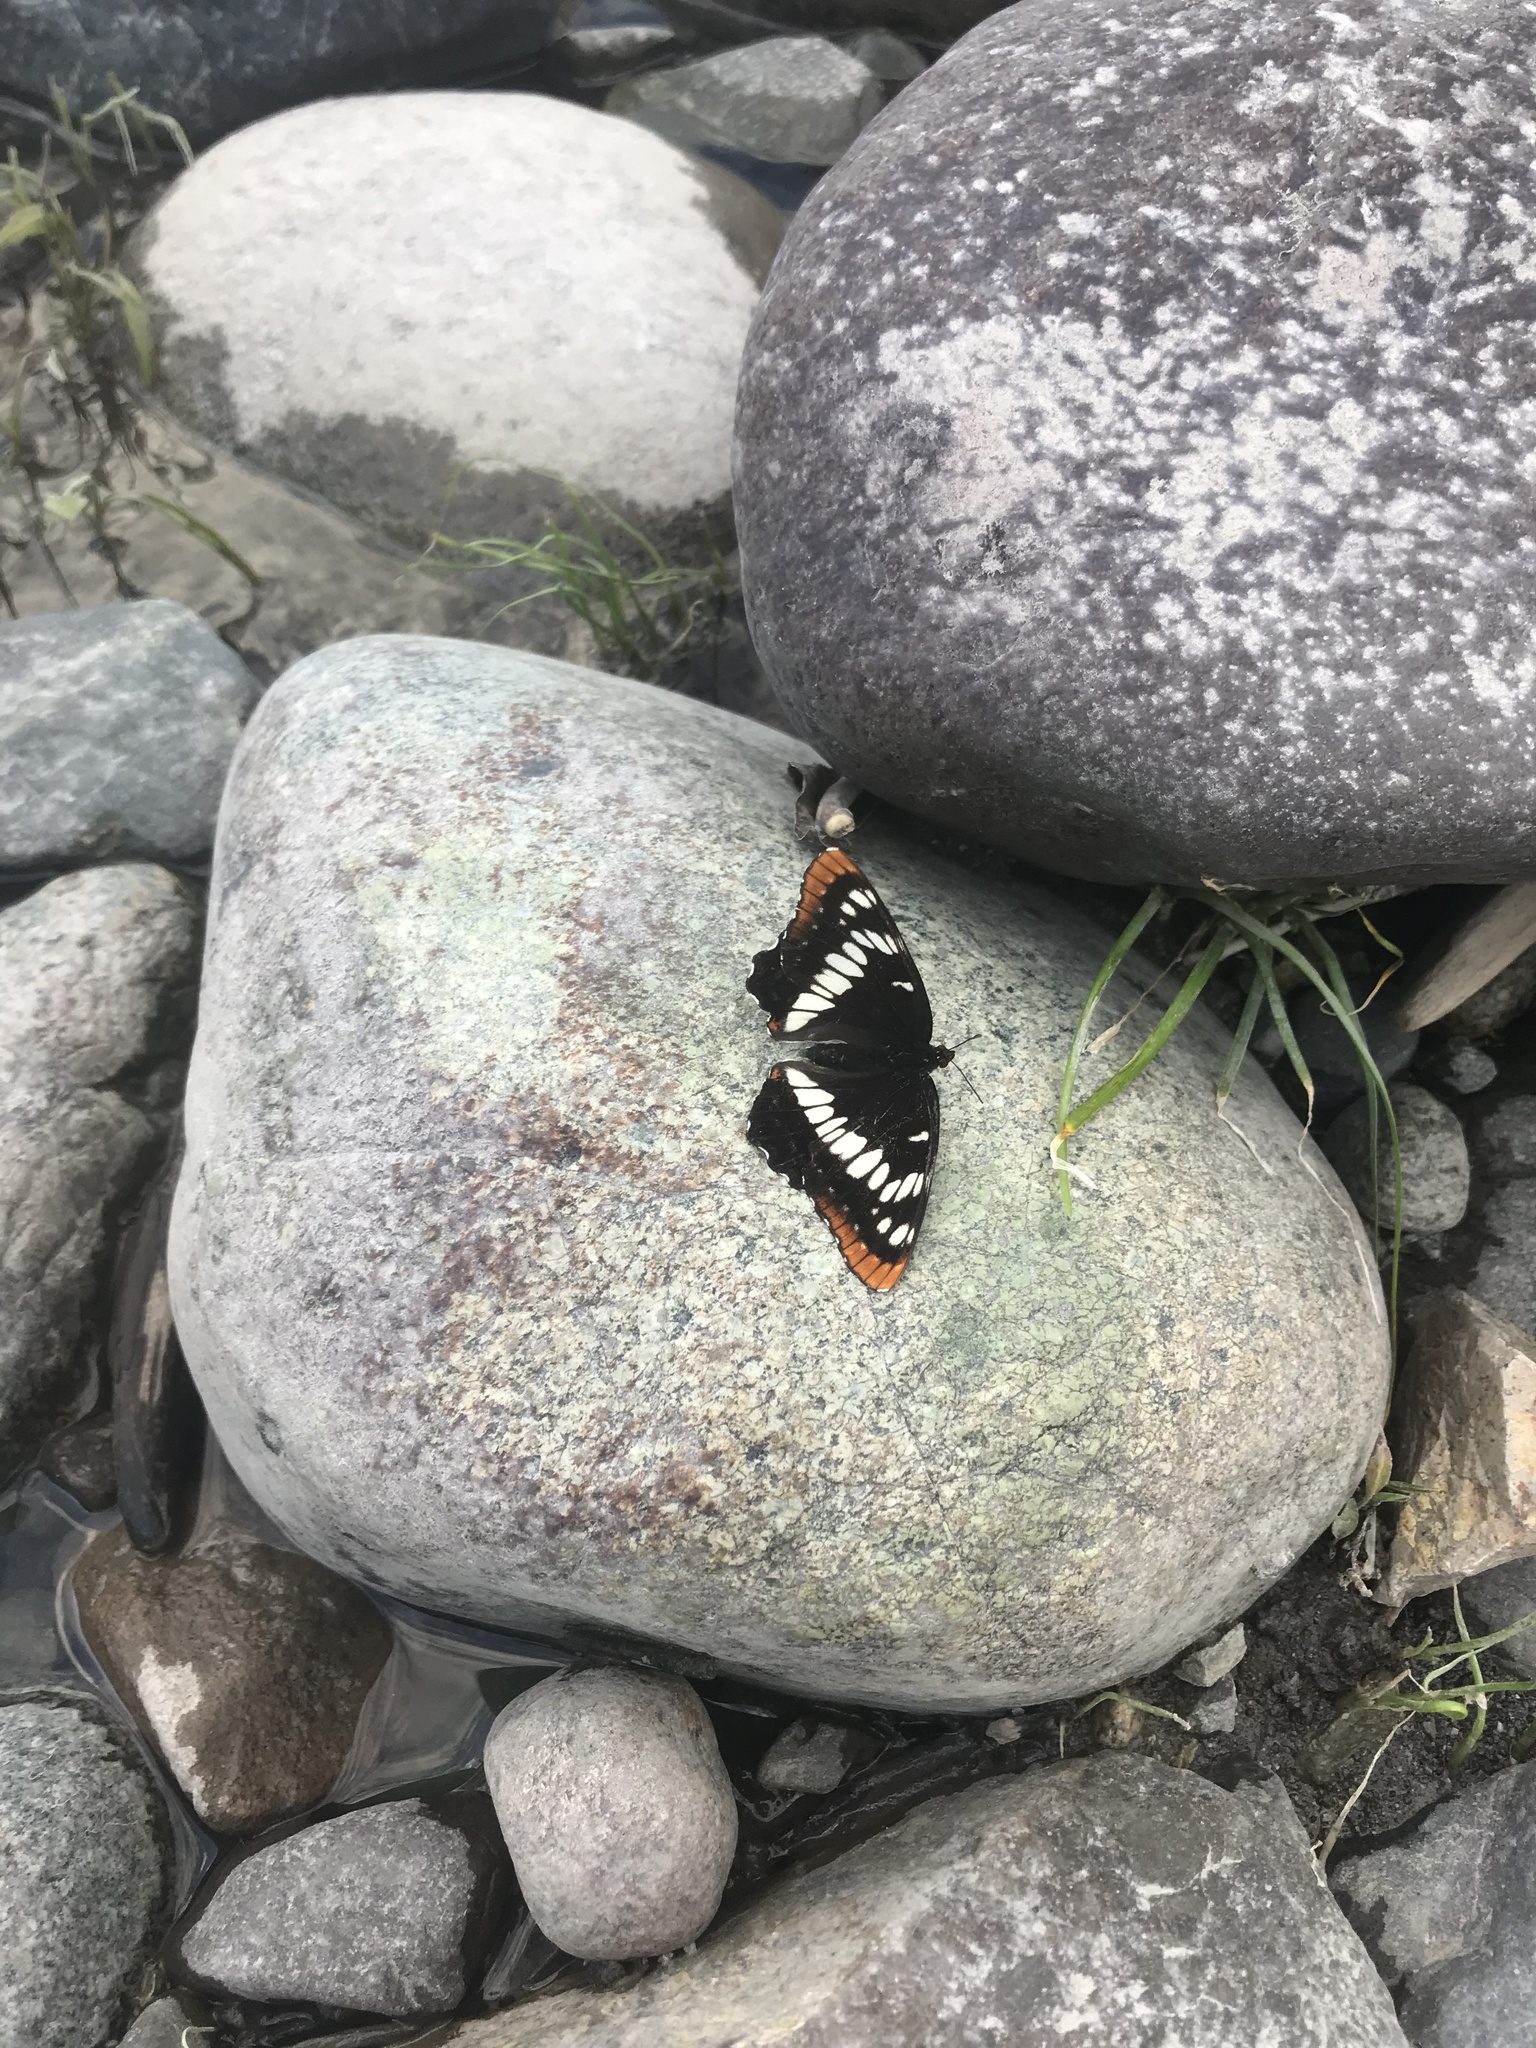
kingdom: Animalia
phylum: Arthropoda
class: Insecta
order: Lepidoptera
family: Nymphalidae
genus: Limenitis
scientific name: Limenitis lorquini
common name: Lorquin's admiral
